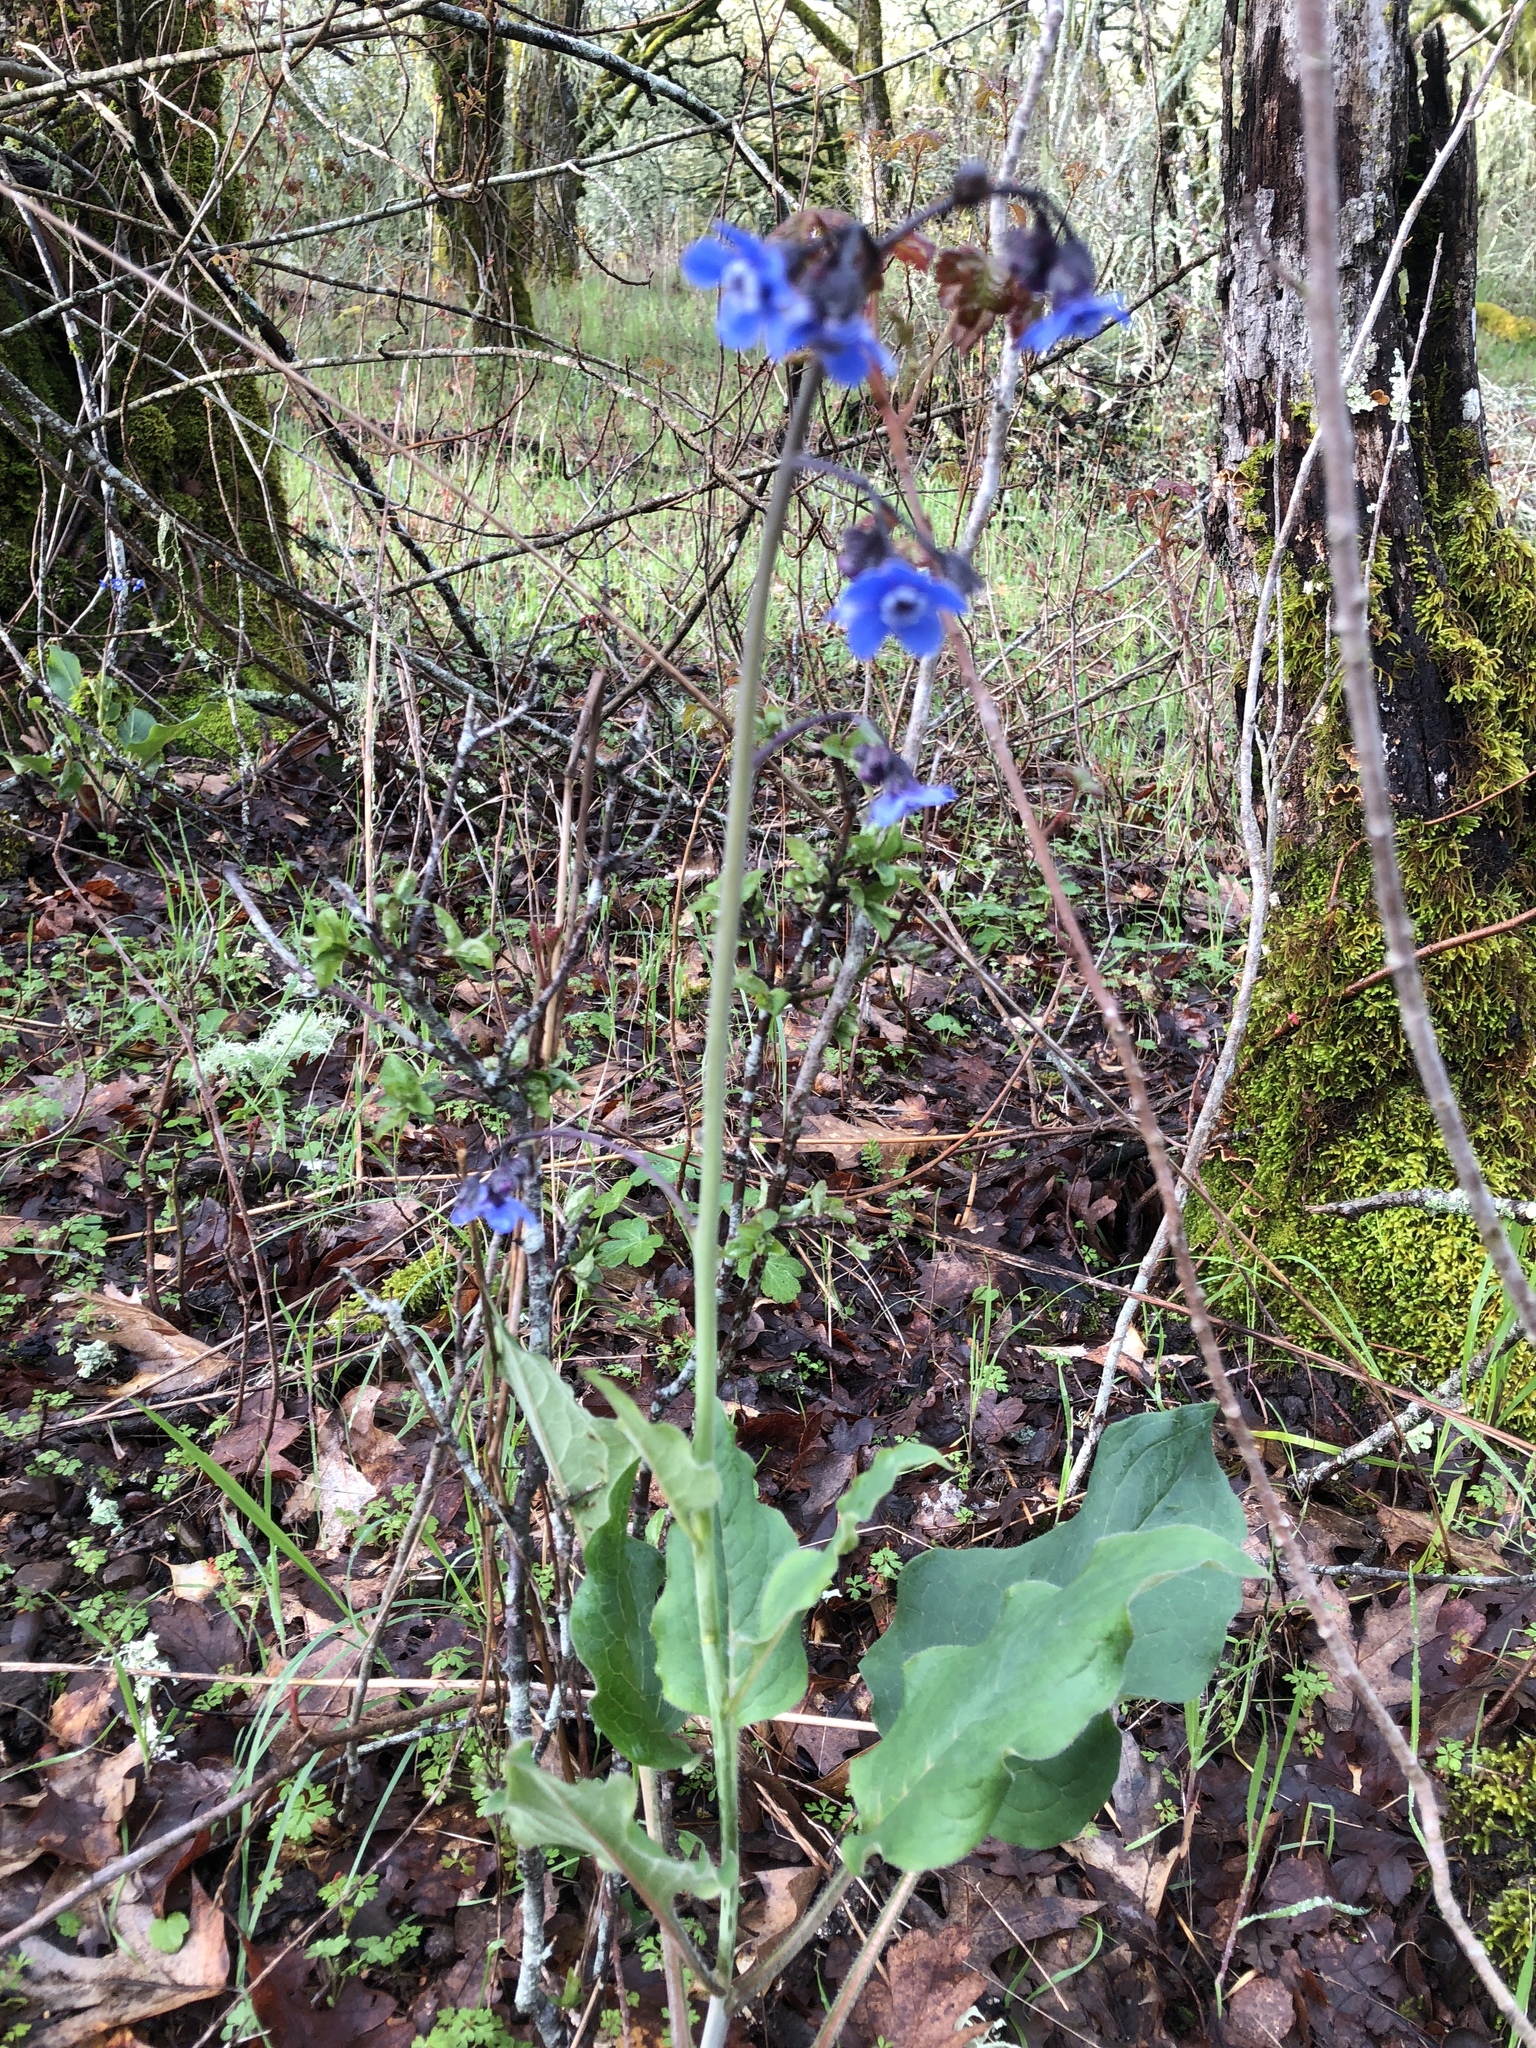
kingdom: Plantae
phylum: Tracheophyta
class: Magnoliopsida
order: Boraginales
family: Boraginaceae
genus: Adelinia
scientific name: Adelinia grande
